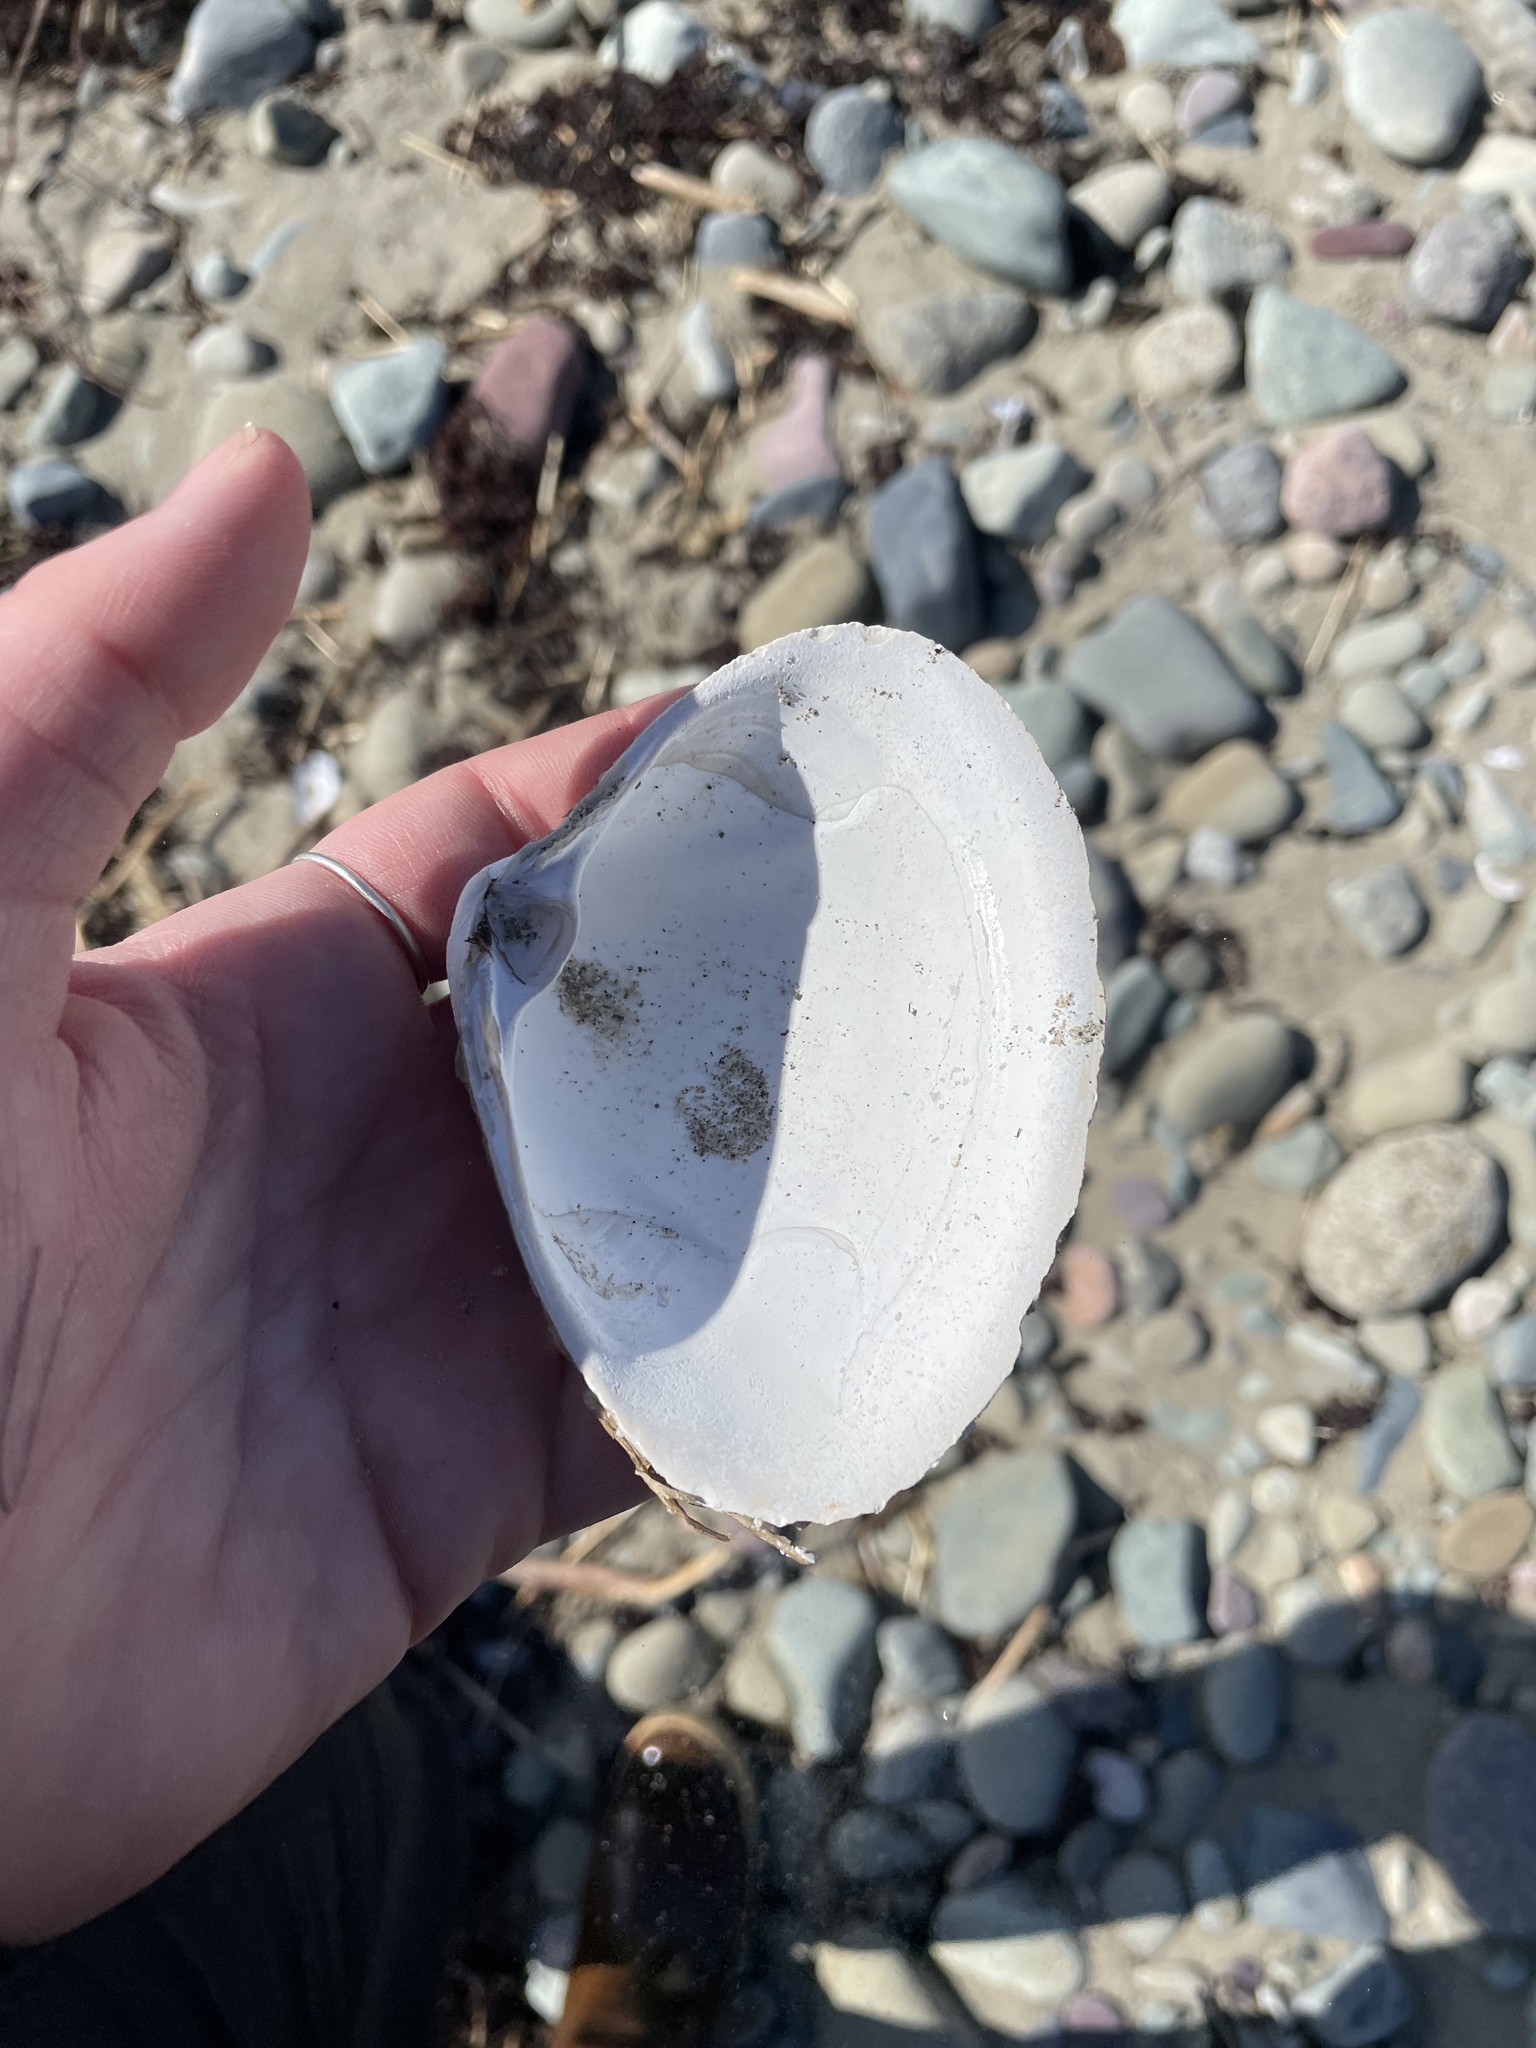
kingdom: Animalia
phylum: Mollusca
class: Bivalvia
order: Venerida
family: Mactridae
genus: Spisula
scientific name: Spisula solidissima
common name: Atlantic surf clam
